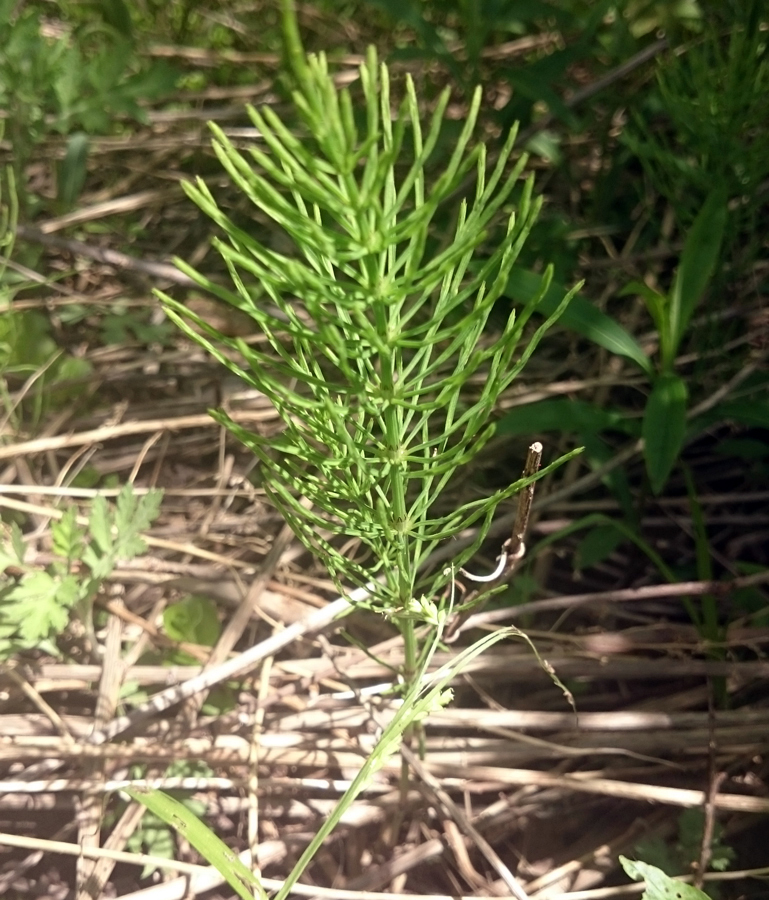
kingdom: Plantae
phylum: Tracheophyta
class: Polypodiopsida
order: Equisetales
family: Equisetaceae
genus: Equisetum
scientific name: Equisetum arvense
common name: Field horsetail
